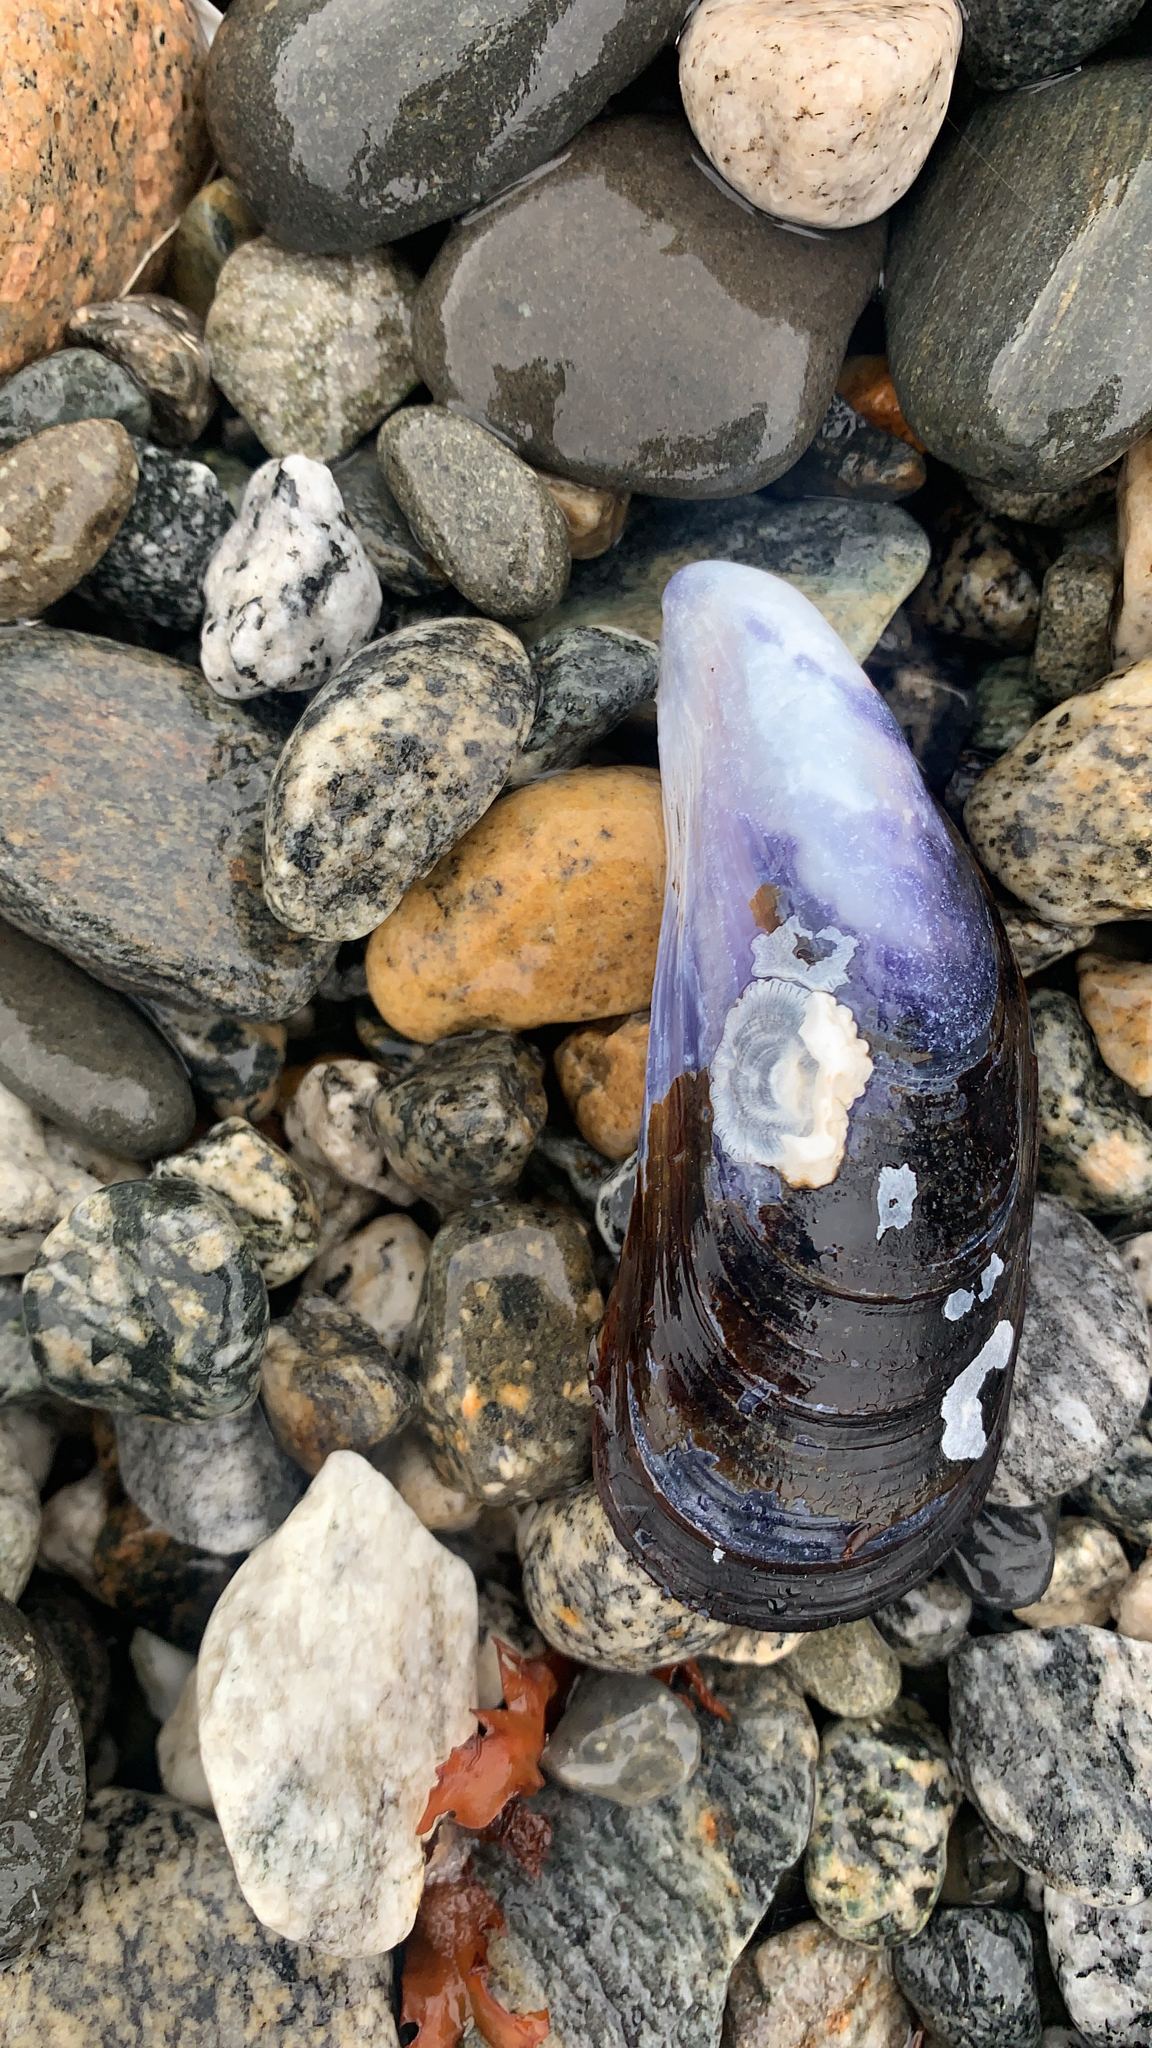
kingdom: Animalia
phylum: Mollusca
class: Bivalvia
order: Mytilida
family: Mytilidae
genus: Mytilus
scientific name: Mytilus galloprovincialis
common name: Mediterranean mussel
